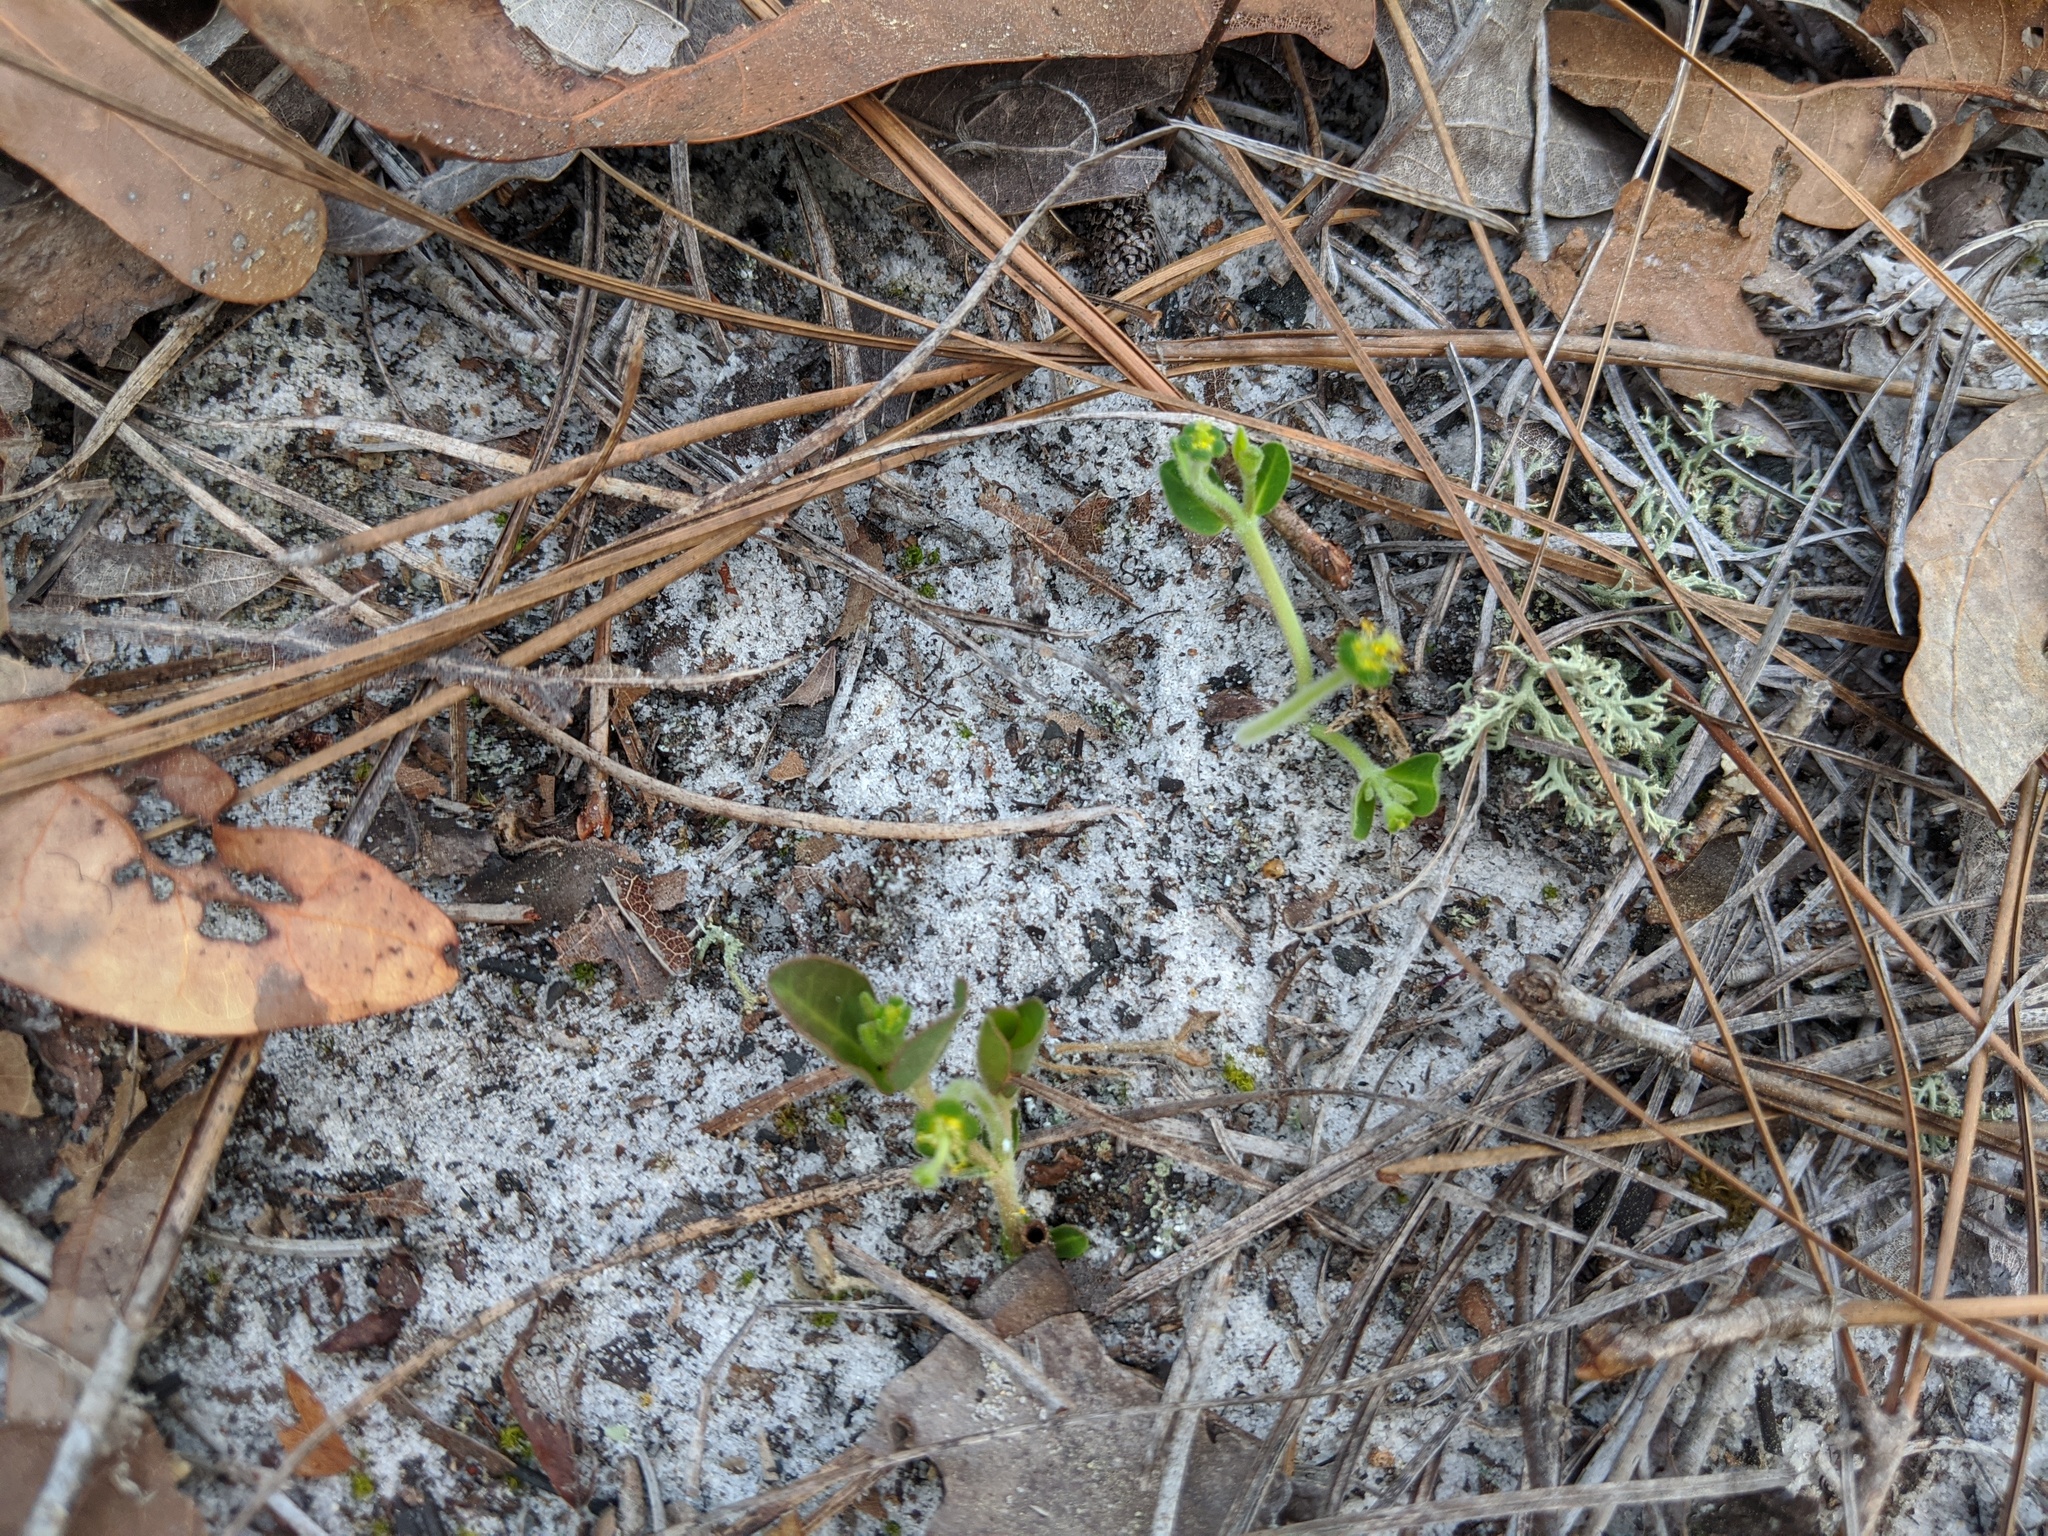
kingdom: Plantae
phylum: Tracheophyta
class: Magnoliopsida
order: Malpighiales
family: Euphorbiaceae
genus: Euphorbia
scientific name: Euphorbia ipecacuanhae
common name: Carolina ipecac
